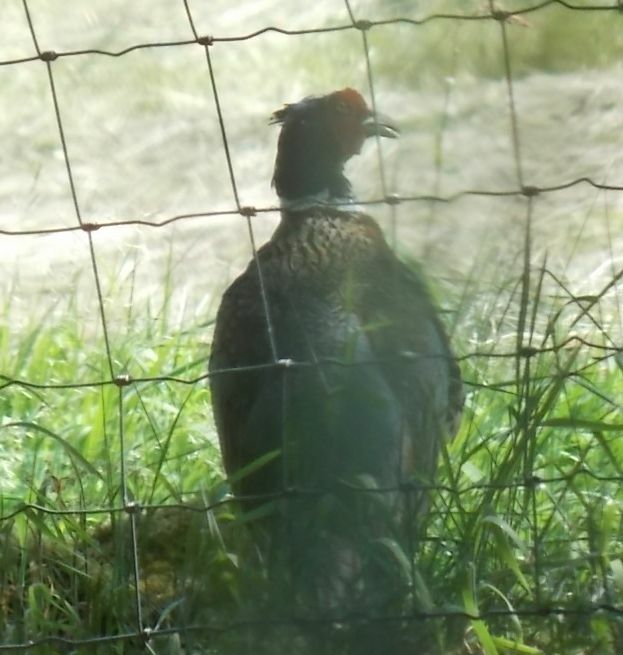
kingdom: Animalia
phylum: Chordata
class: Aves
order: Galliformes
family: Phasianidae
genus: Phasianus
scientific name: Phasianus colchicus
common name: Common pheasant
